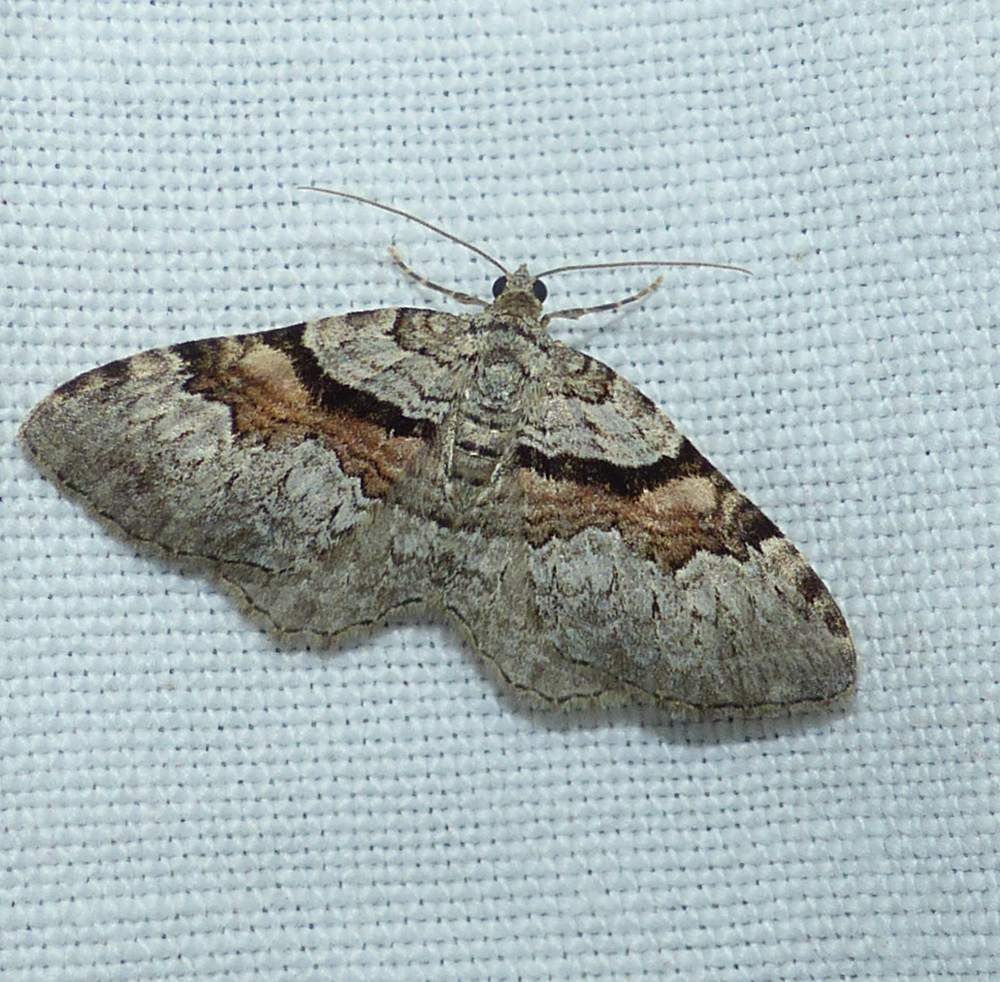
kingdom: Animalia
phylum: Arthropoda
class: Insecta
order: Lepidoptera
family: Geometridae
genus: Xanthorhoe
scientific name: Xanthorhoe packardata
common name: Packard's carpet
